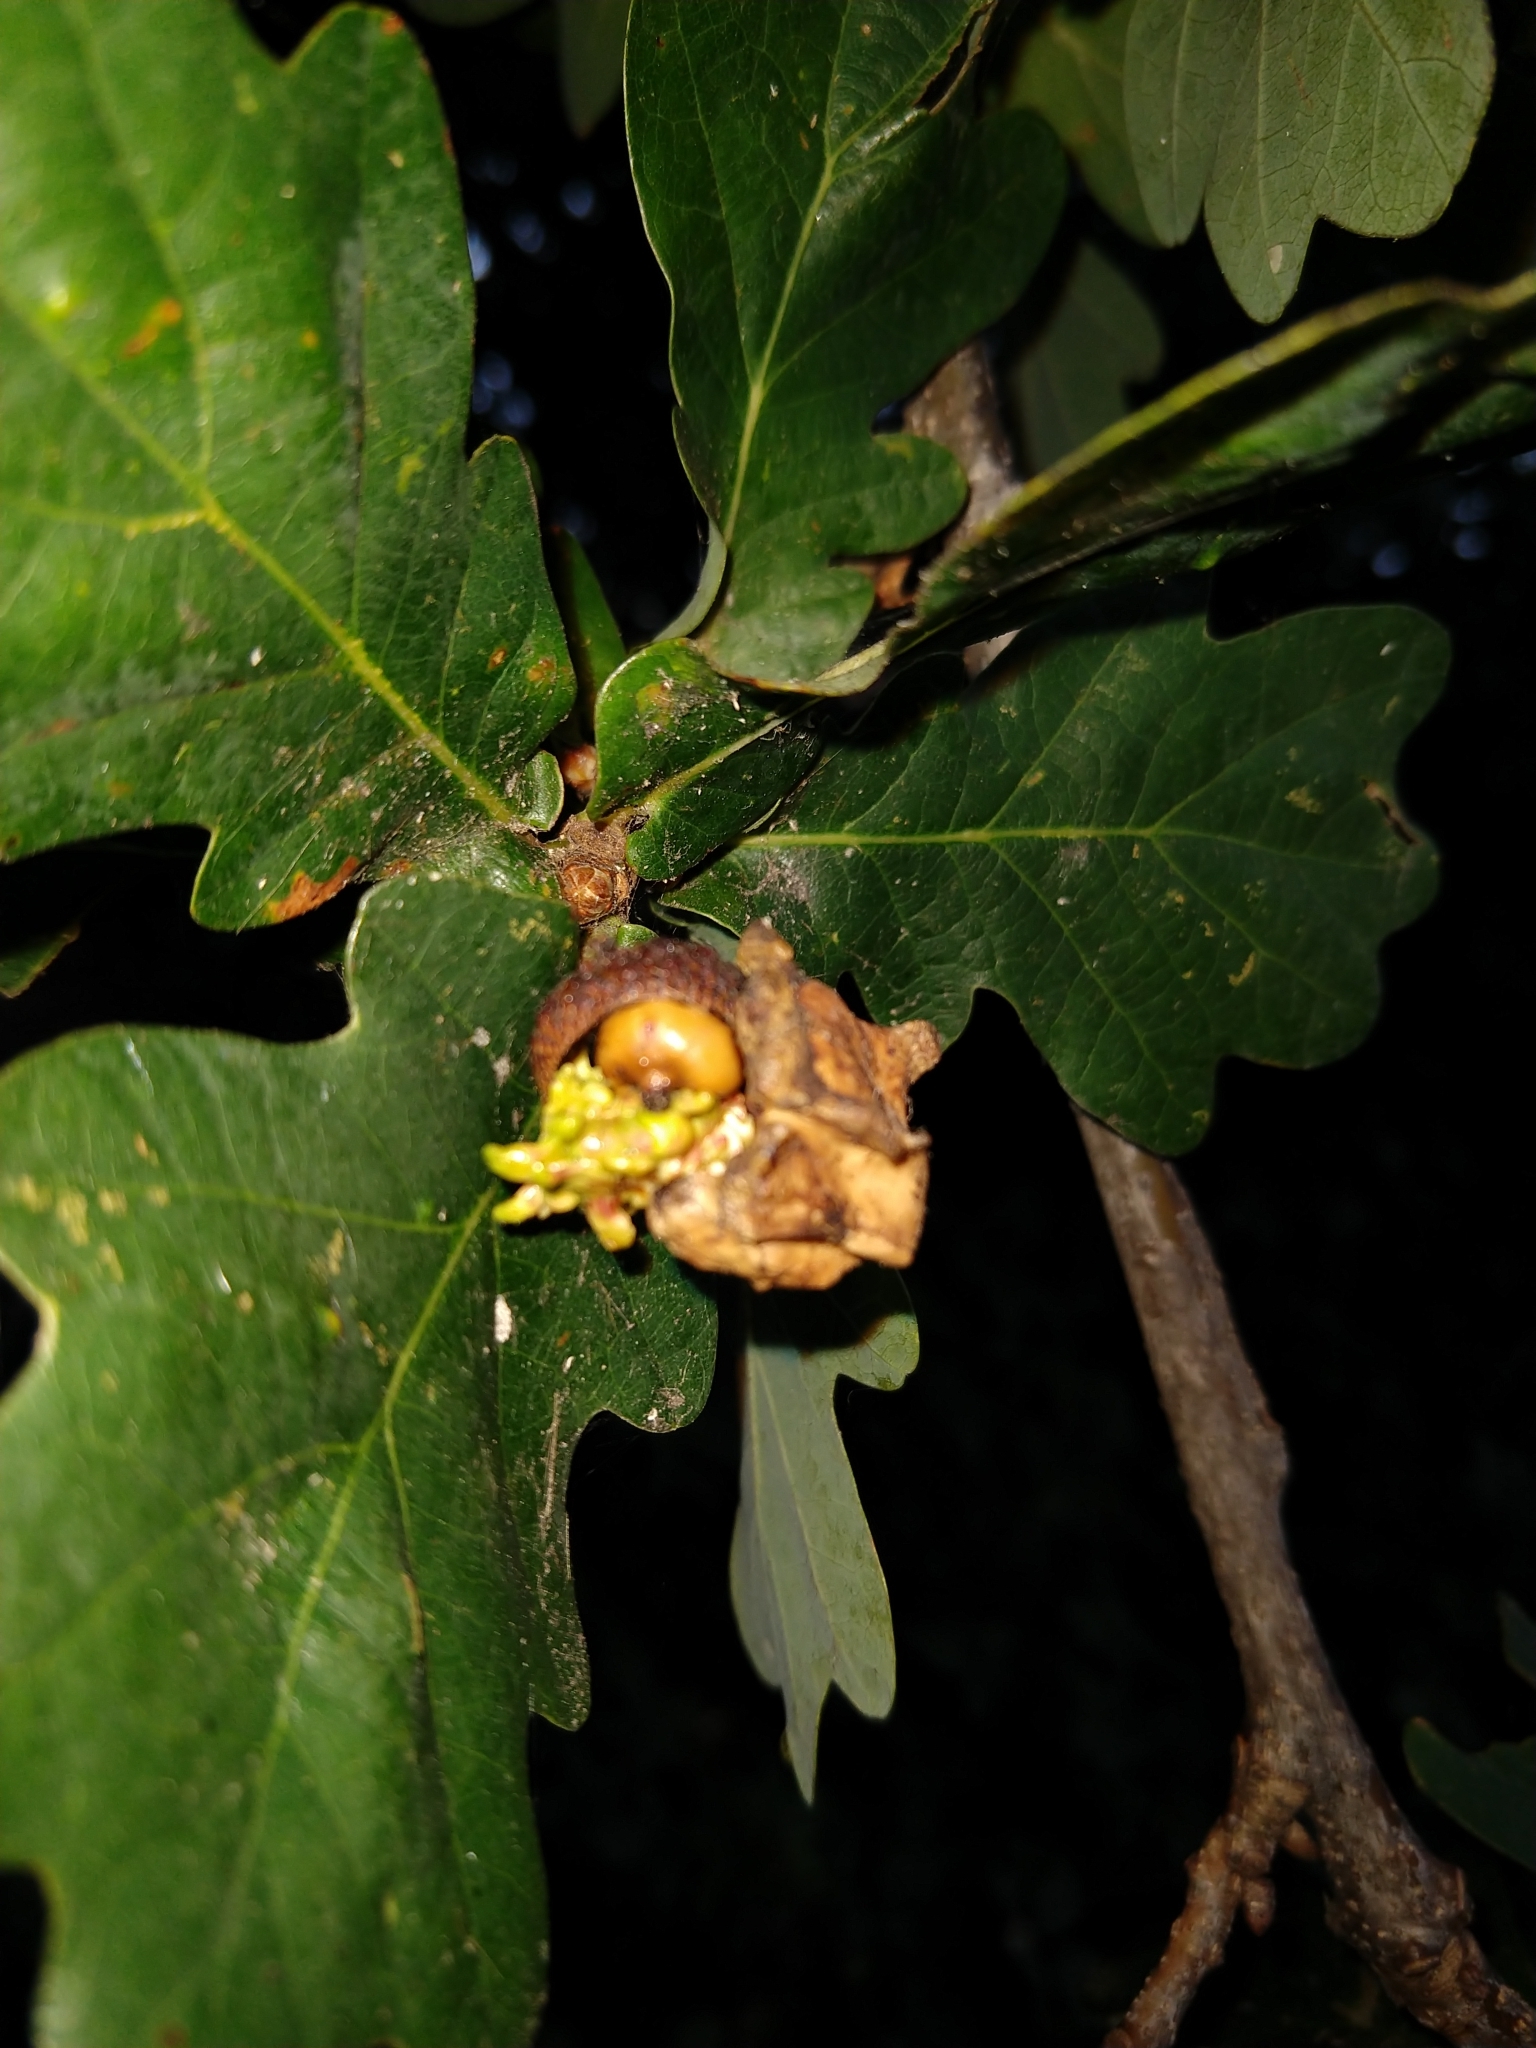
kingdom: Animalia
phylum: Arthropoda
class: Insecta
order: Hymenoptera
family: Cynipidae
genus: Andricus
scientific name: Andricus quercuscalicis
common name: Knopper gall
